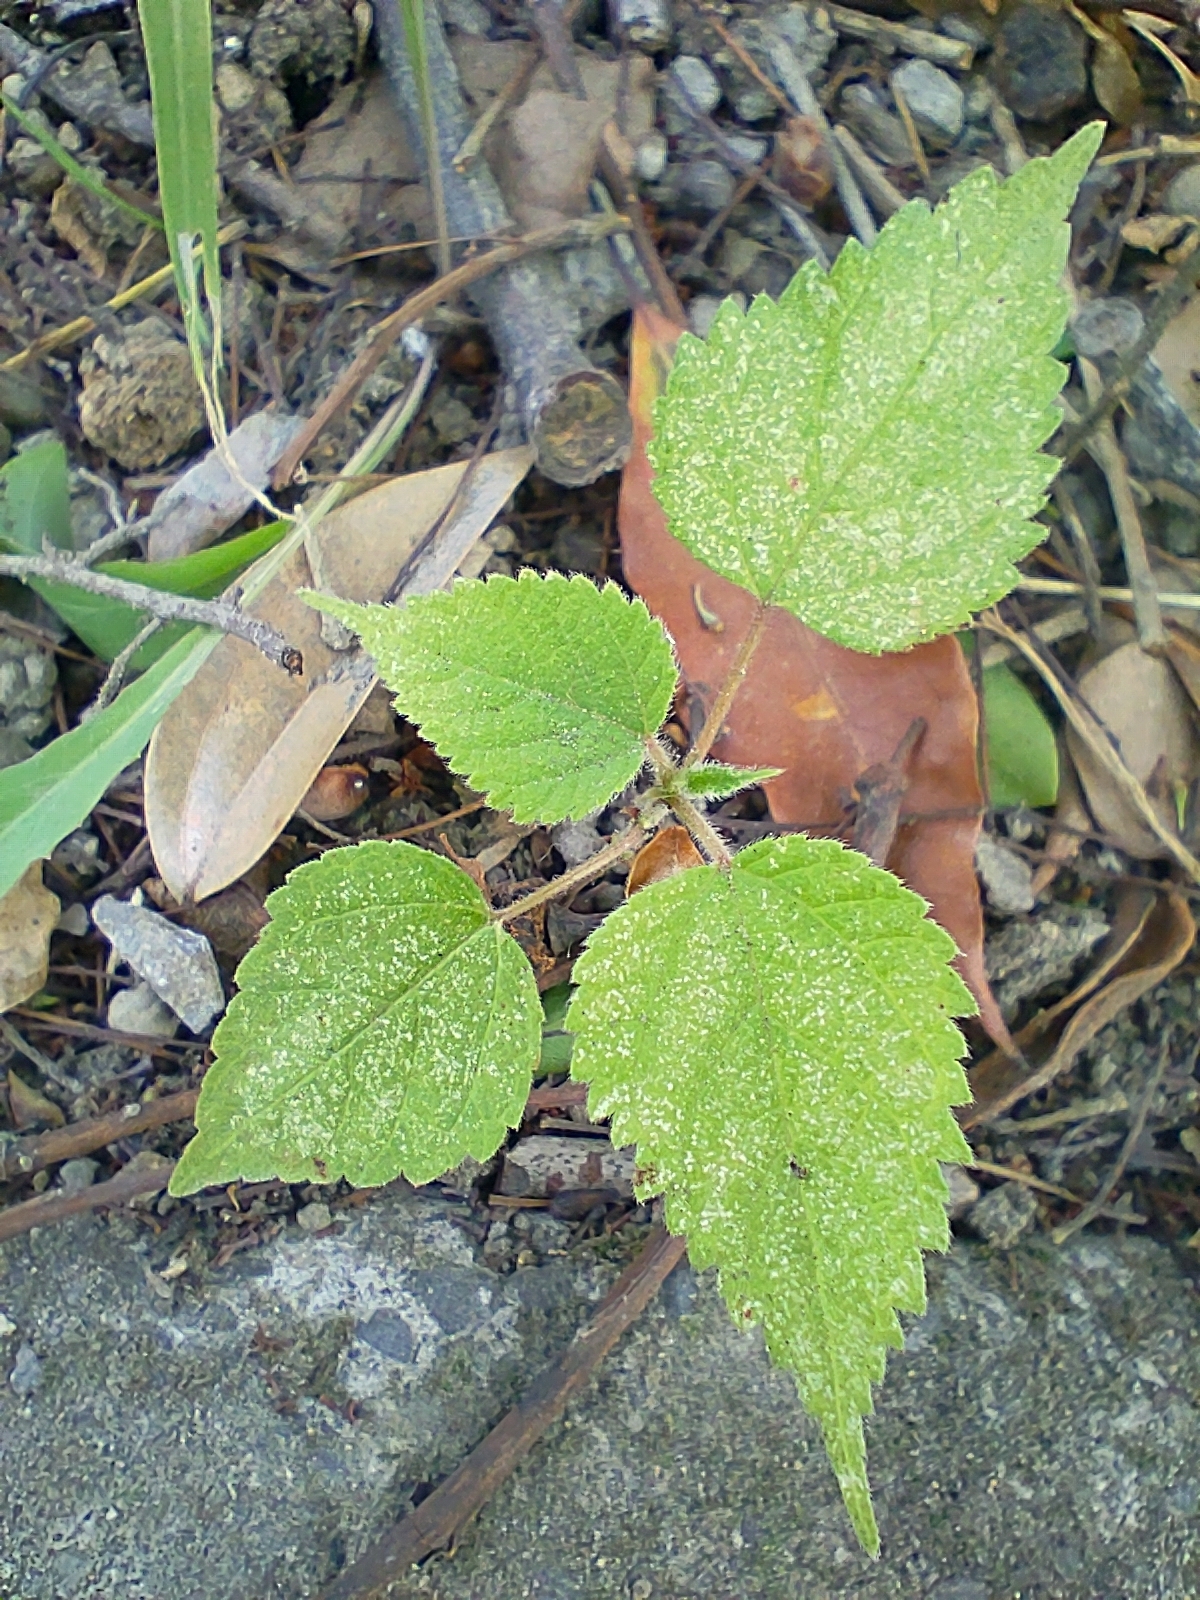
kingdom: Plantae
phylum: Tracheophyta
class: Magnoliopsida
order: Rosales
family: Moraceae
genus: Broussonetia
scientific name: Broussonetia papyrifera
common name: Paper mulberry
